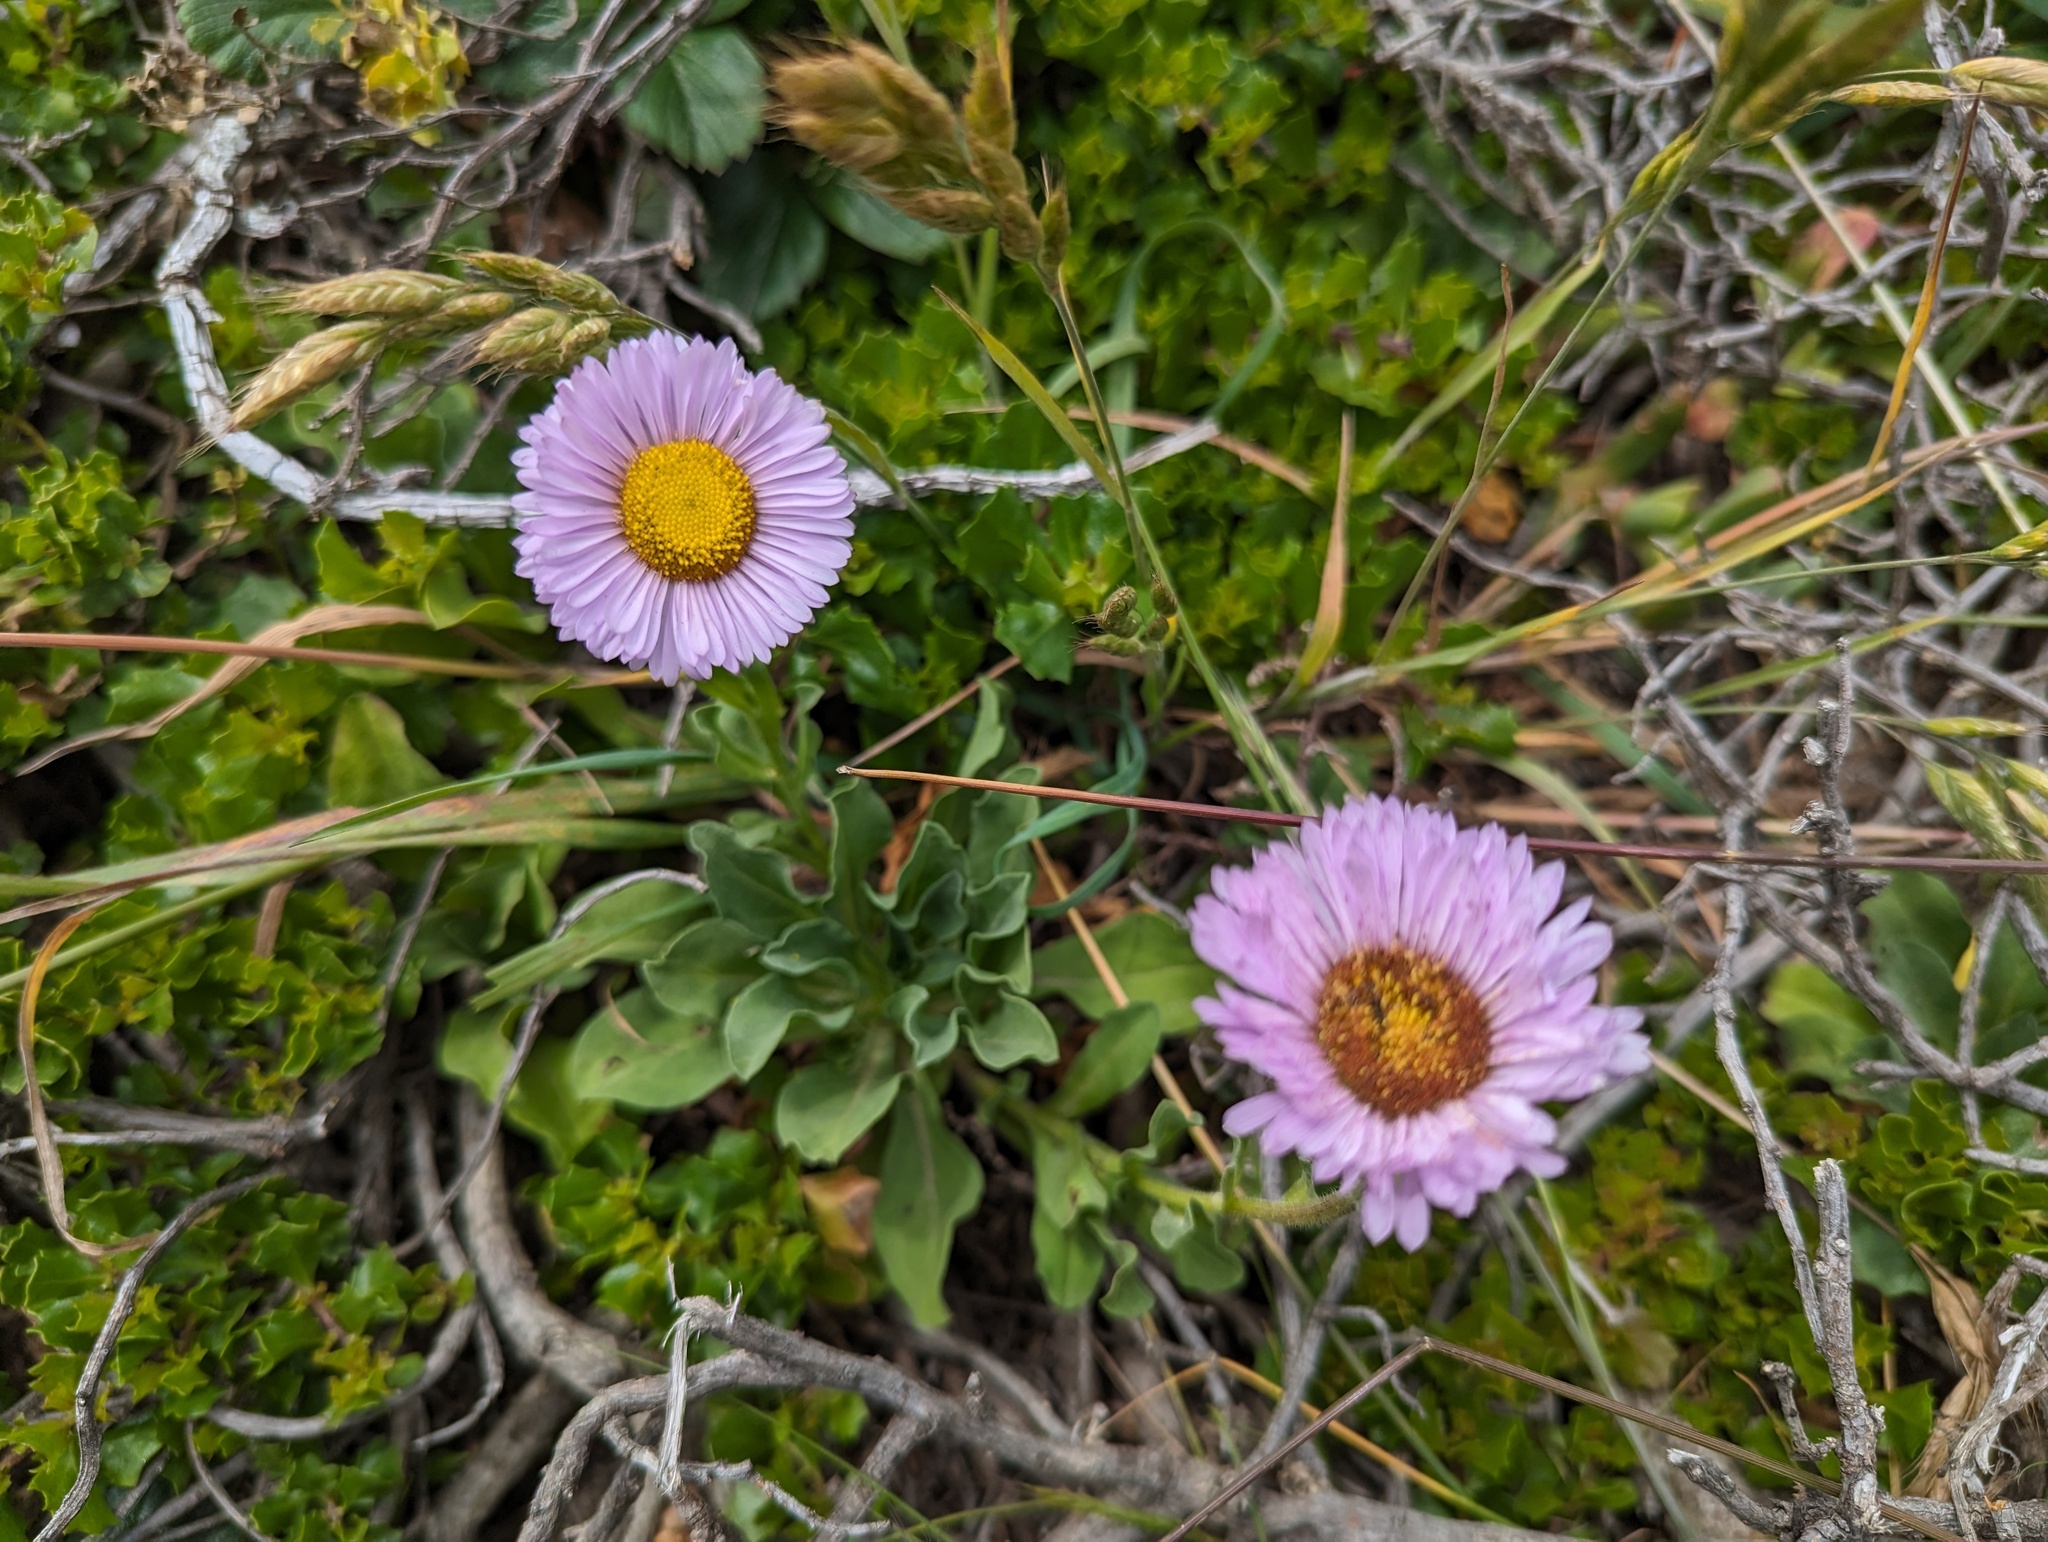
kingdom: Plantae
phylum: Tracheophyta
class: Magnoliopsida
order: Asterales
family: Asteraceae
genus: Erigeron
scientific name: Erigeron glaucus
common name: Seaside daisy
